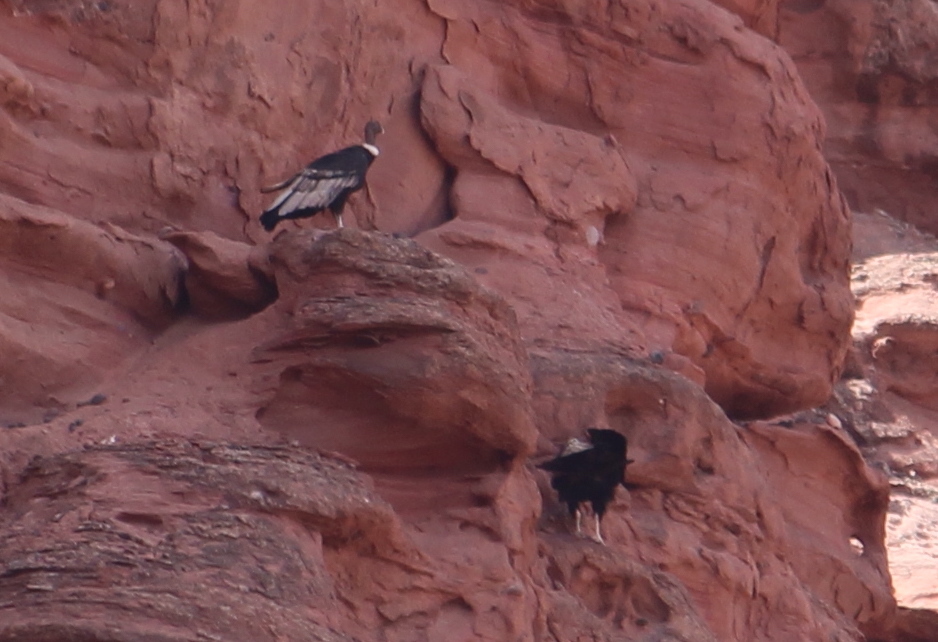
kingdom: Animalia
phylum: Chordata
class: Aves
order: Accipitriformes
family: Cathartidae
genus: Vultur
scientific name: Vultur gryphus
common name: Andean condor
